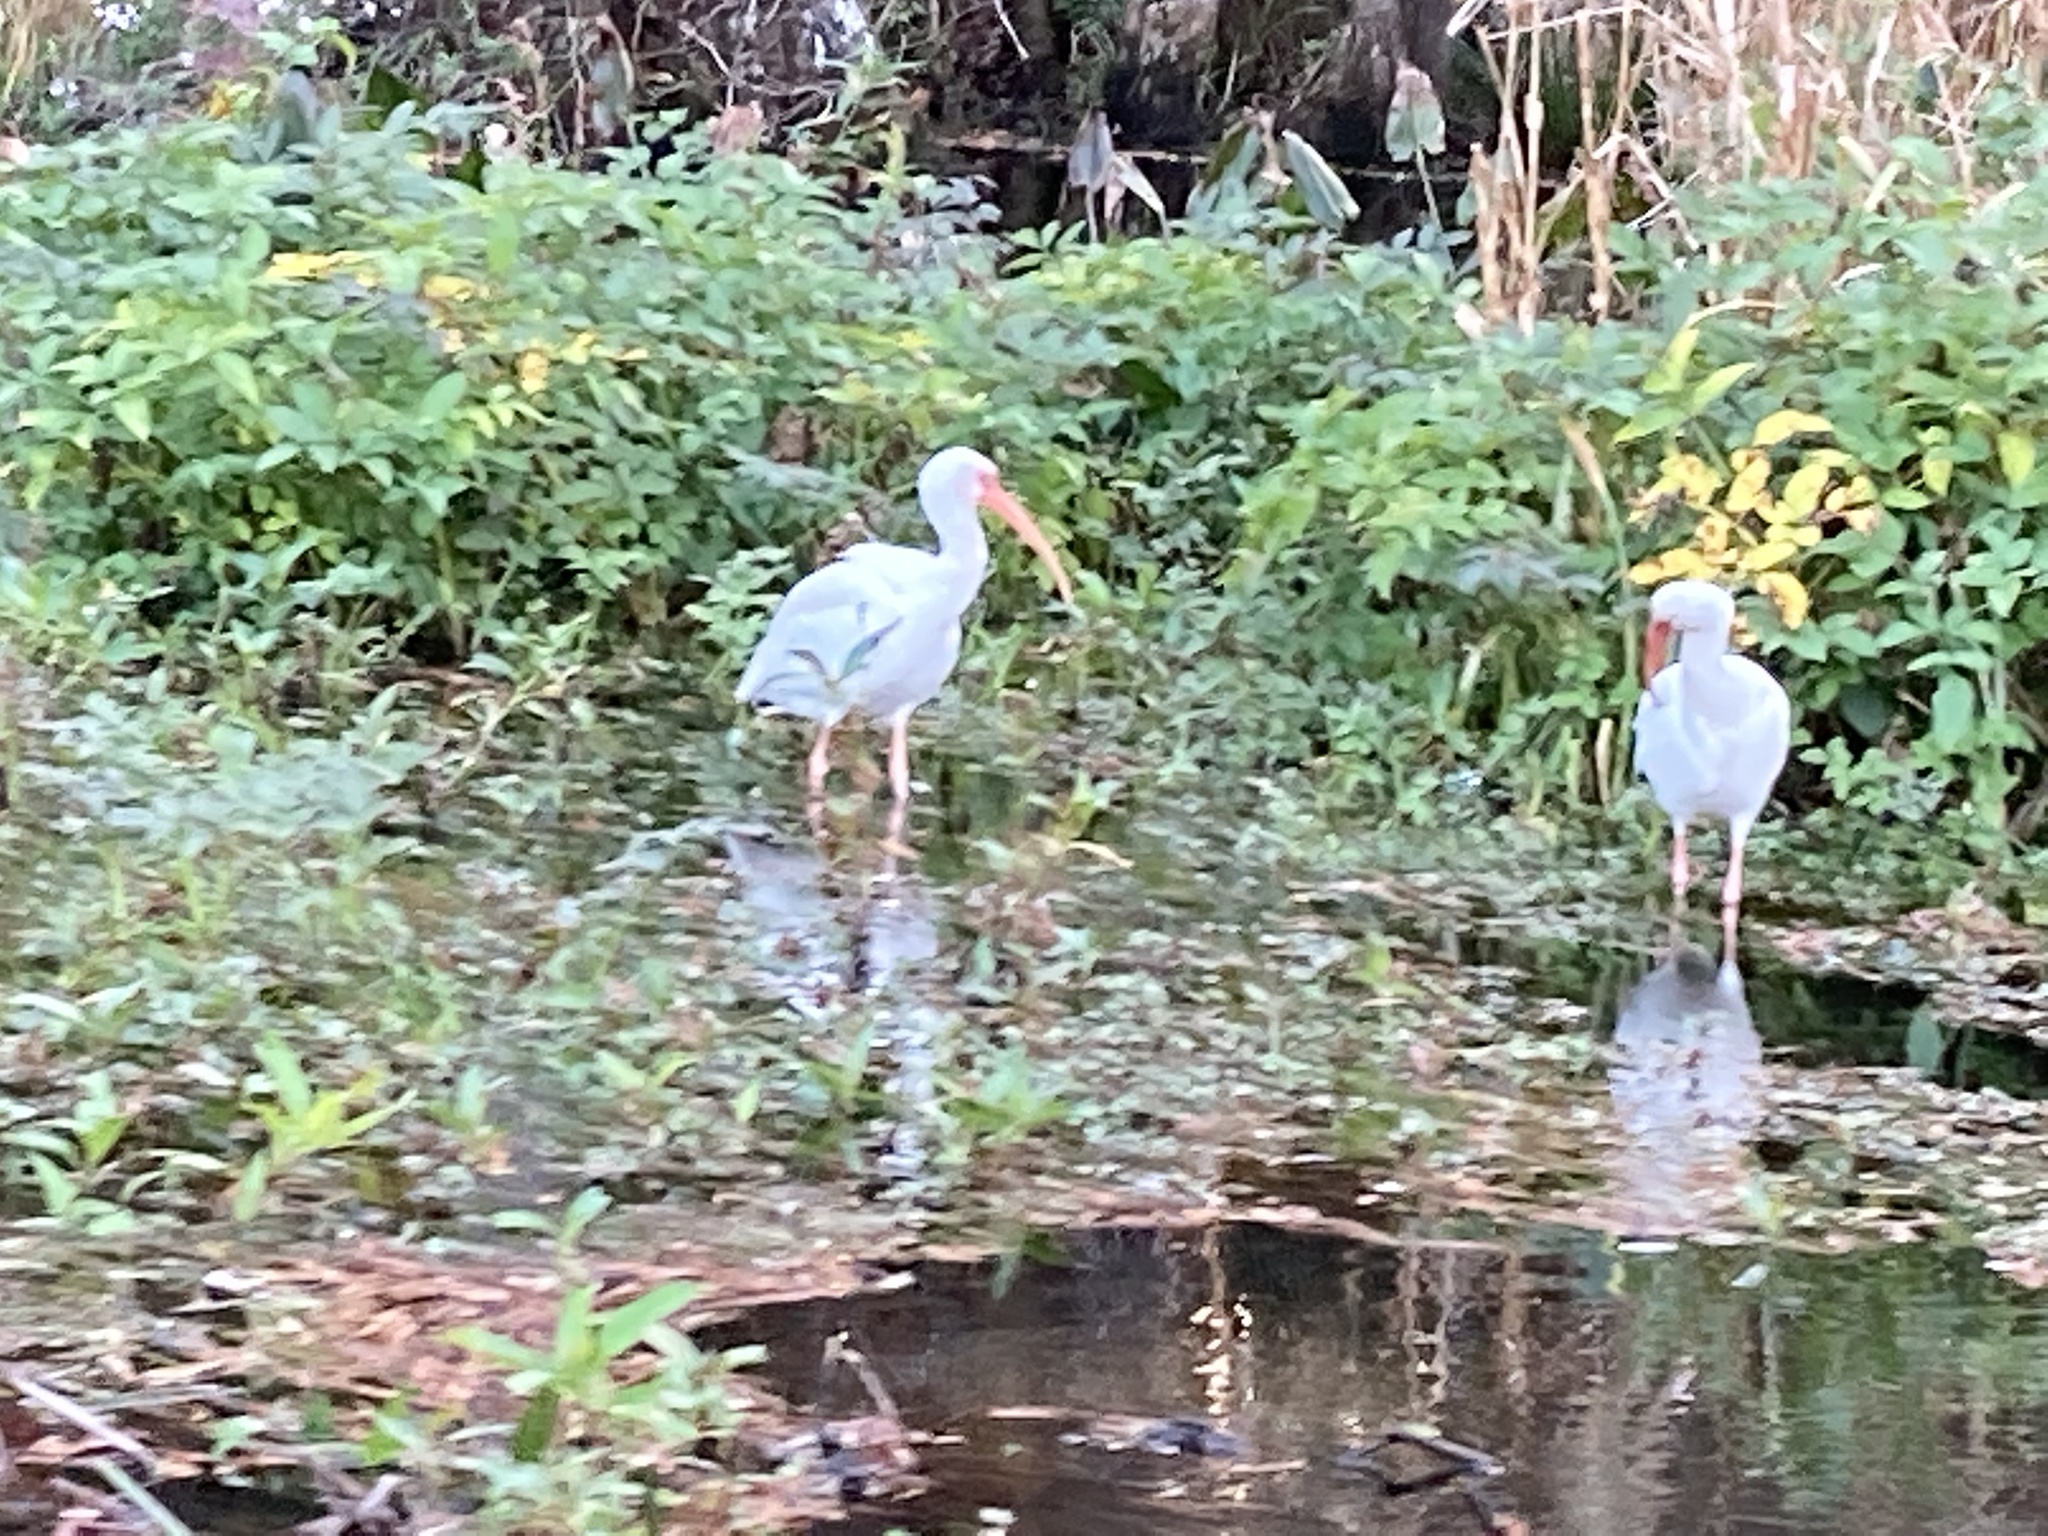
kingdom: Animalia
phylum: Chordata
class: Aves
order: Pelecaniformes
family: Threskiornithidae
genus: Eudocimus
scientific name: Eudocimus albus
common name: White ibis
